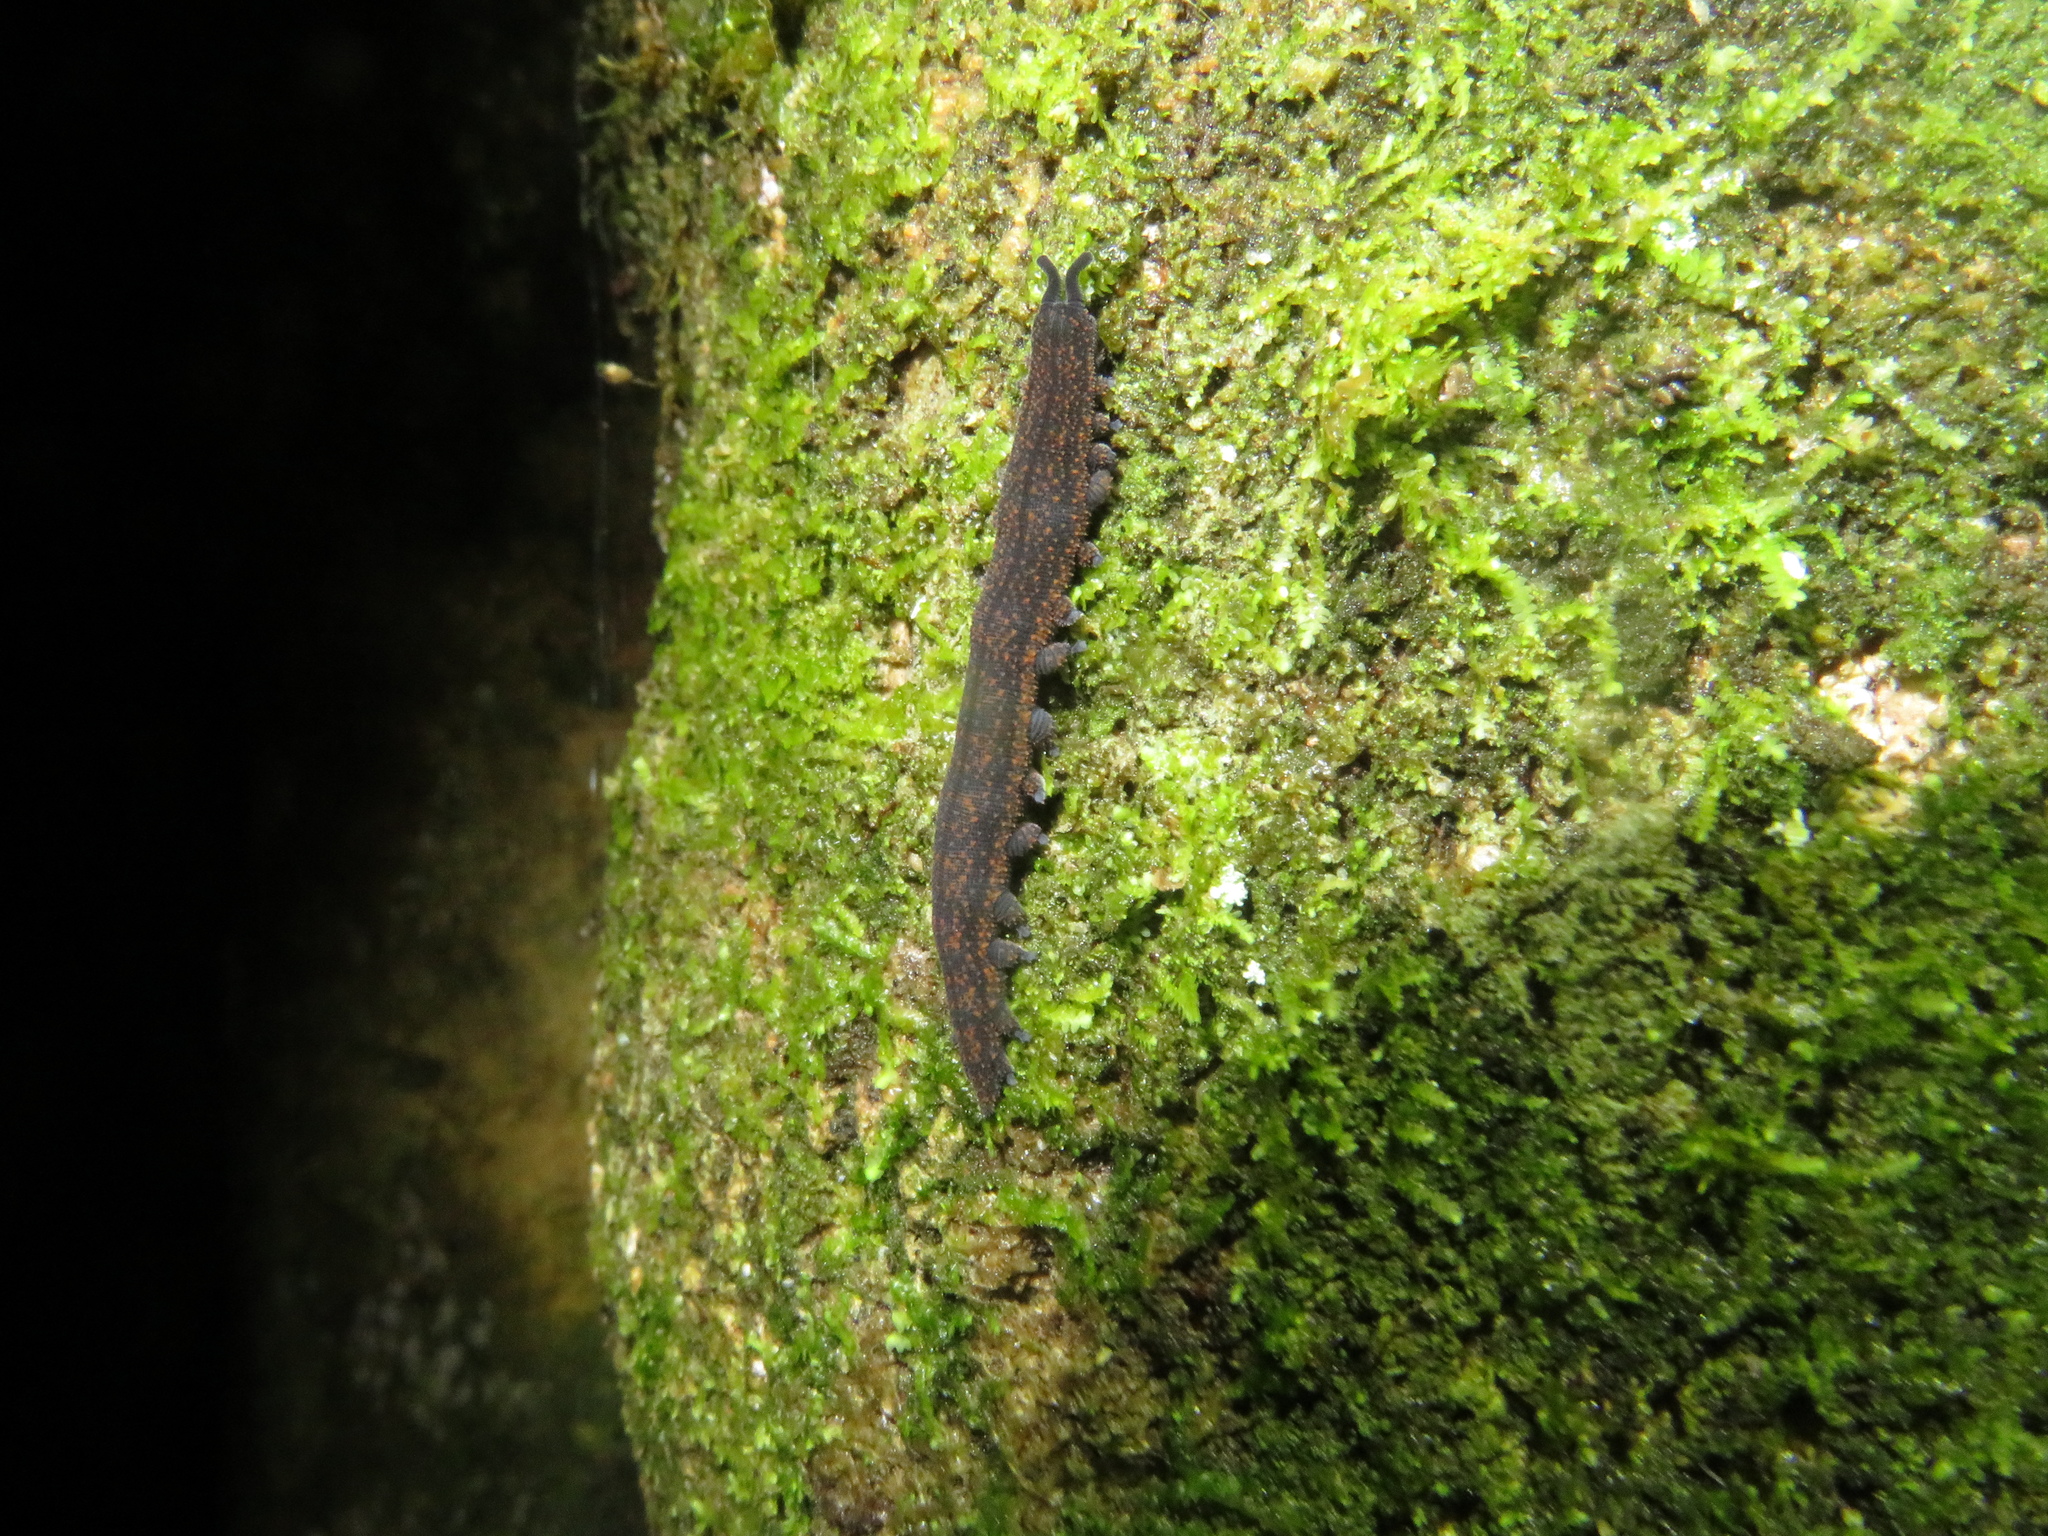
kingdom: Animalia
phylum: Onychophora
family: Peripatopsidae
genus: Peripatoides
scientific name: Peripatoides novaezealandiae
